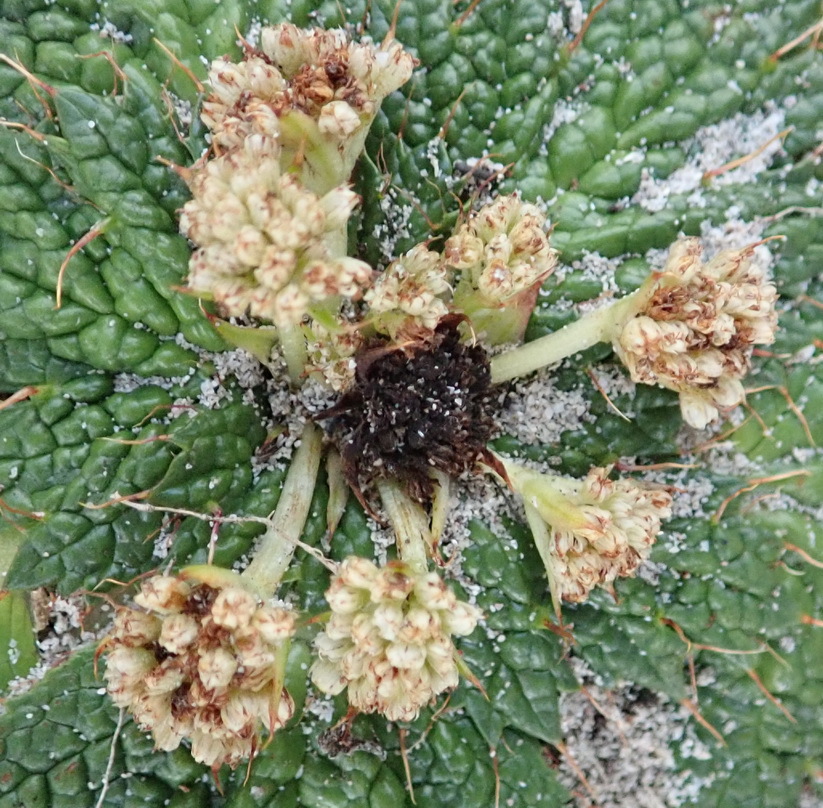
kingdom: Plantae
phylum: Tracheophyta
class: Magnoliopsida
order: Apiales
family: Apiaceae
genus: Arctopus
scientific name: Arctopus echinatus
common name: Platdoring
